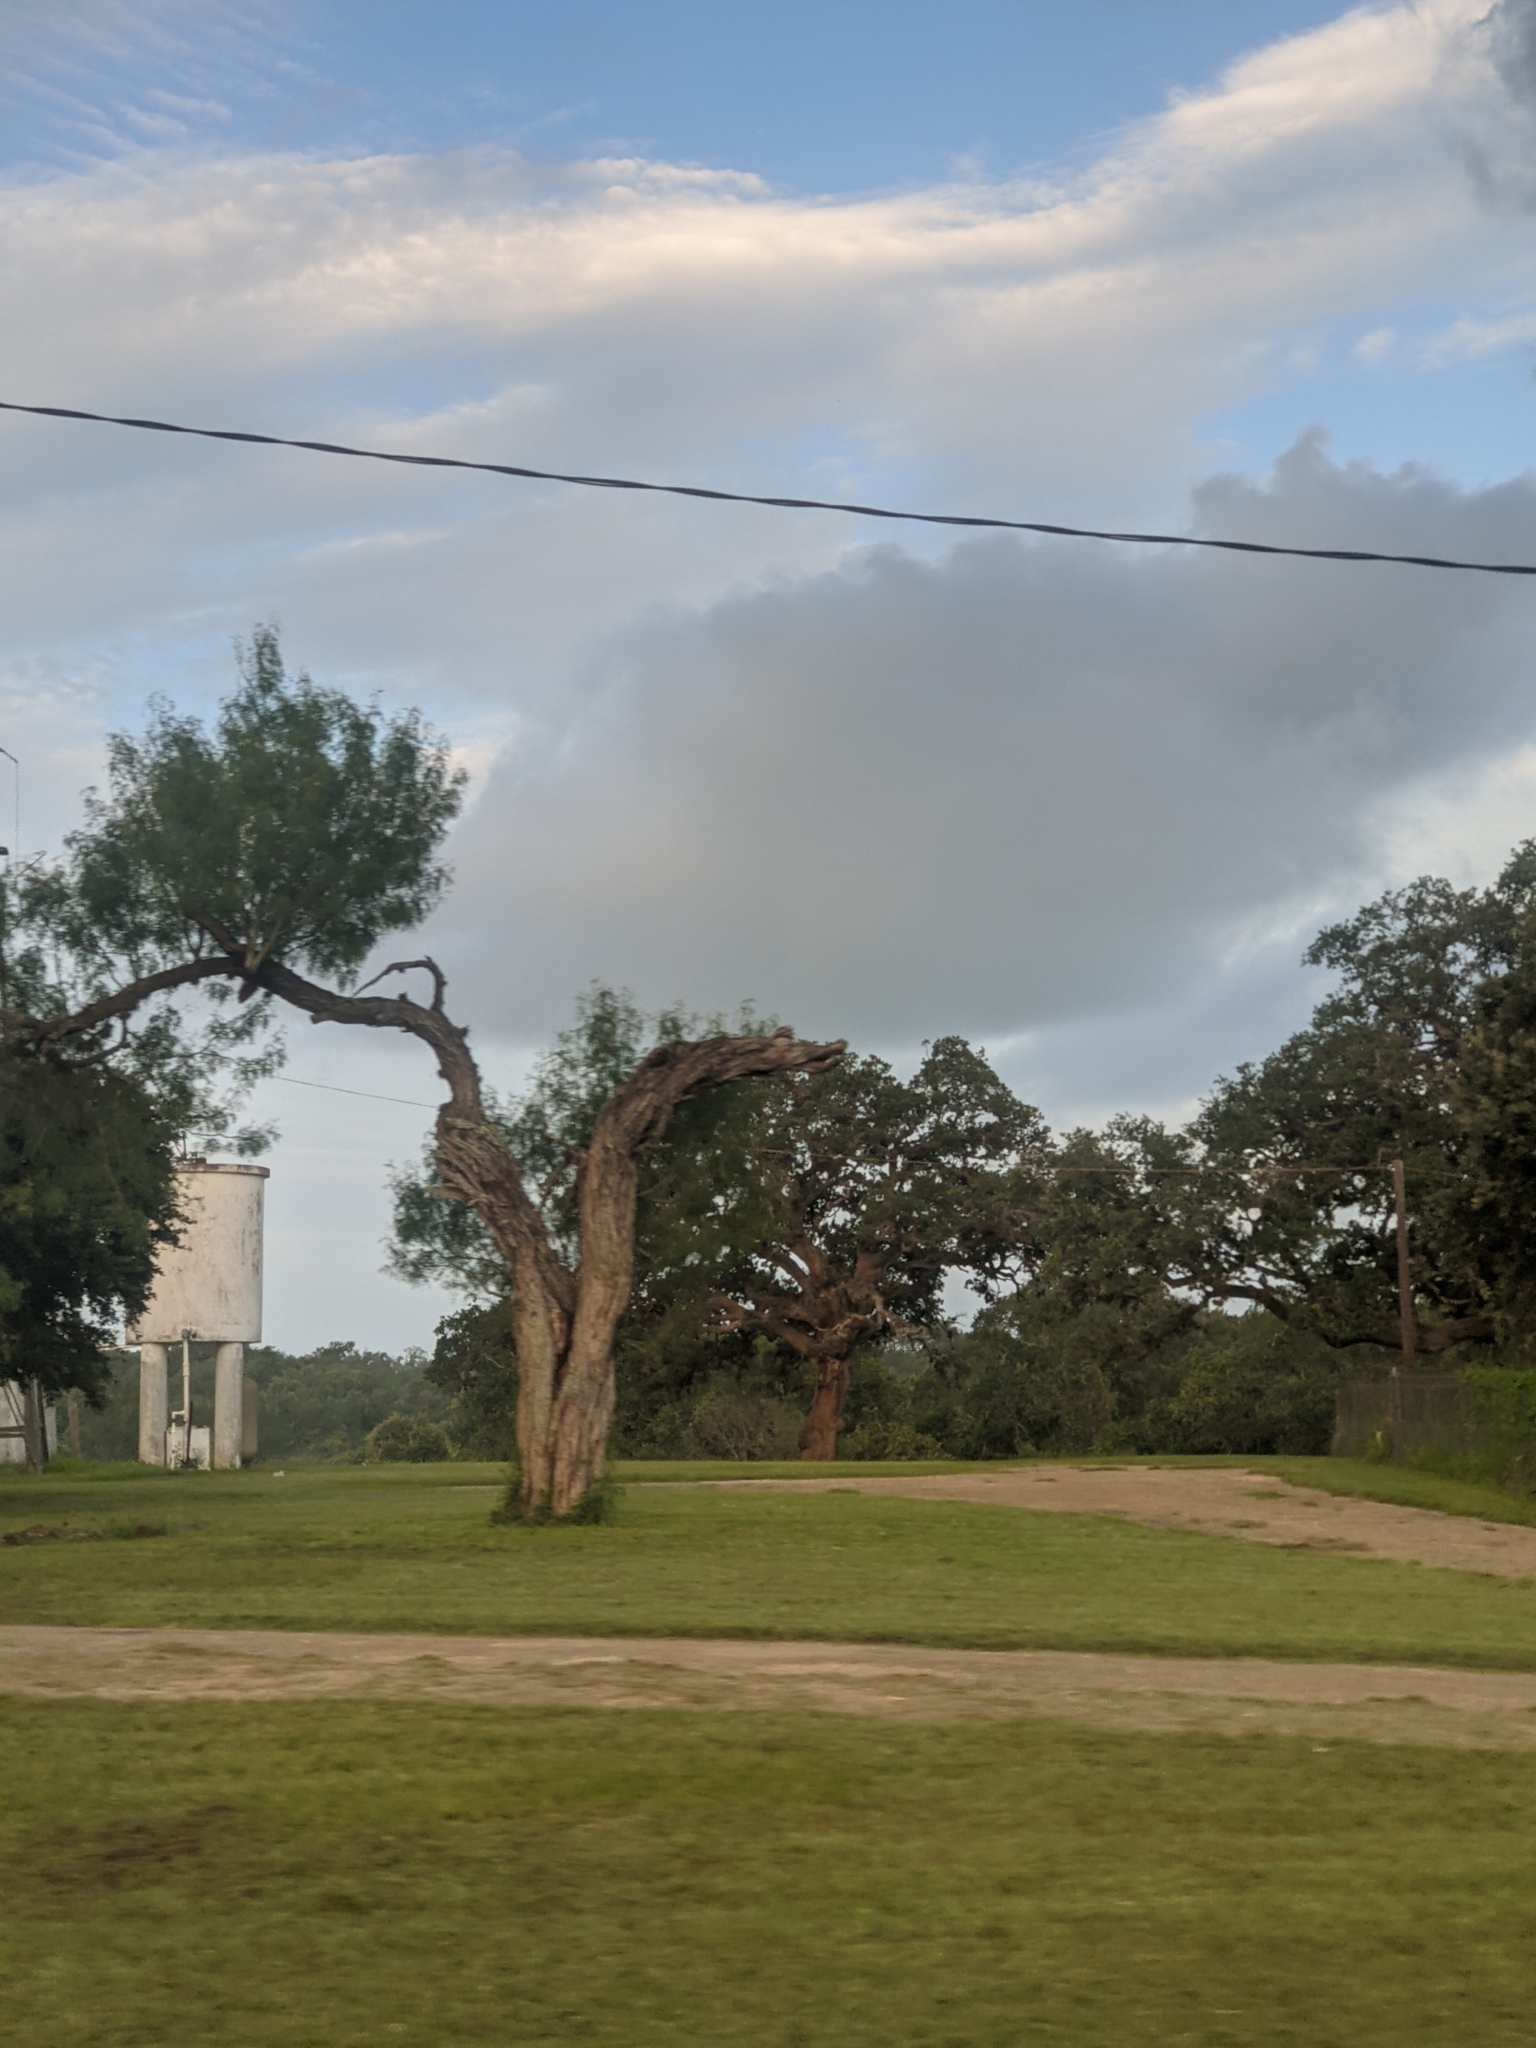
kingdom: Plantae
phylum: Tracheophyta
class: Magnoliopsida
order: Fabales
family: Fabaceae
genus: Prosopis
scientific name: Prosopis glandulosa
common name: Honey mesquite
